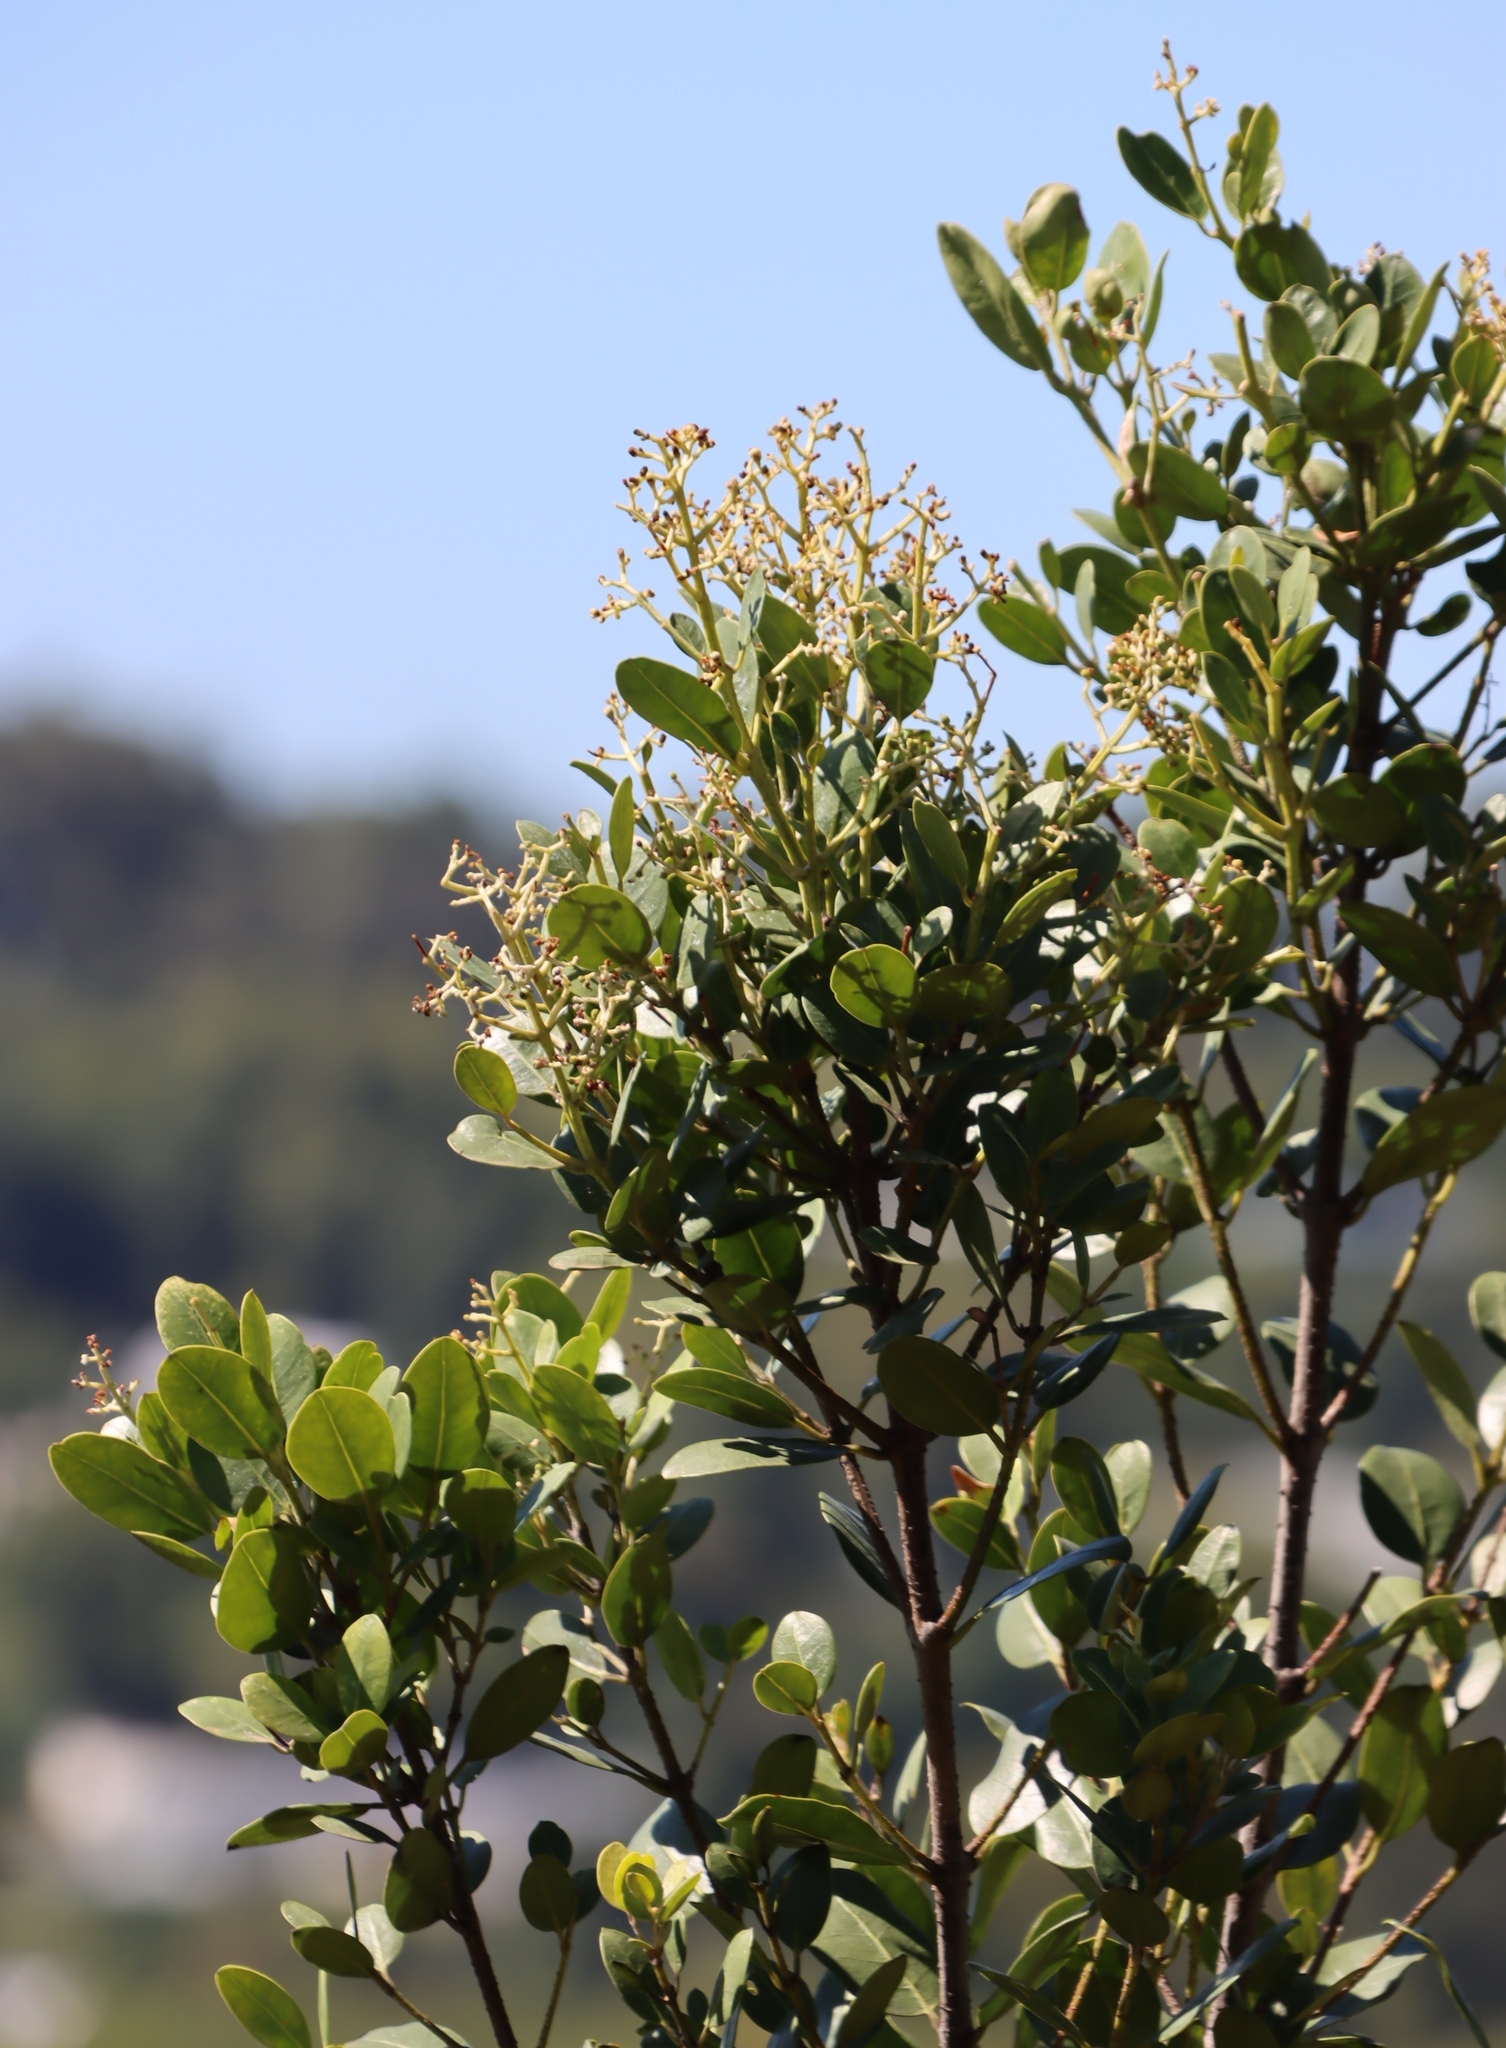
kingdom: Plantae
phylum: Tracheophyta
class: Magnoliopsida
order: Lamiales
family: Oleaceae
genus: Olea
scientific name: Olea capensis
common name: Black ironwood
